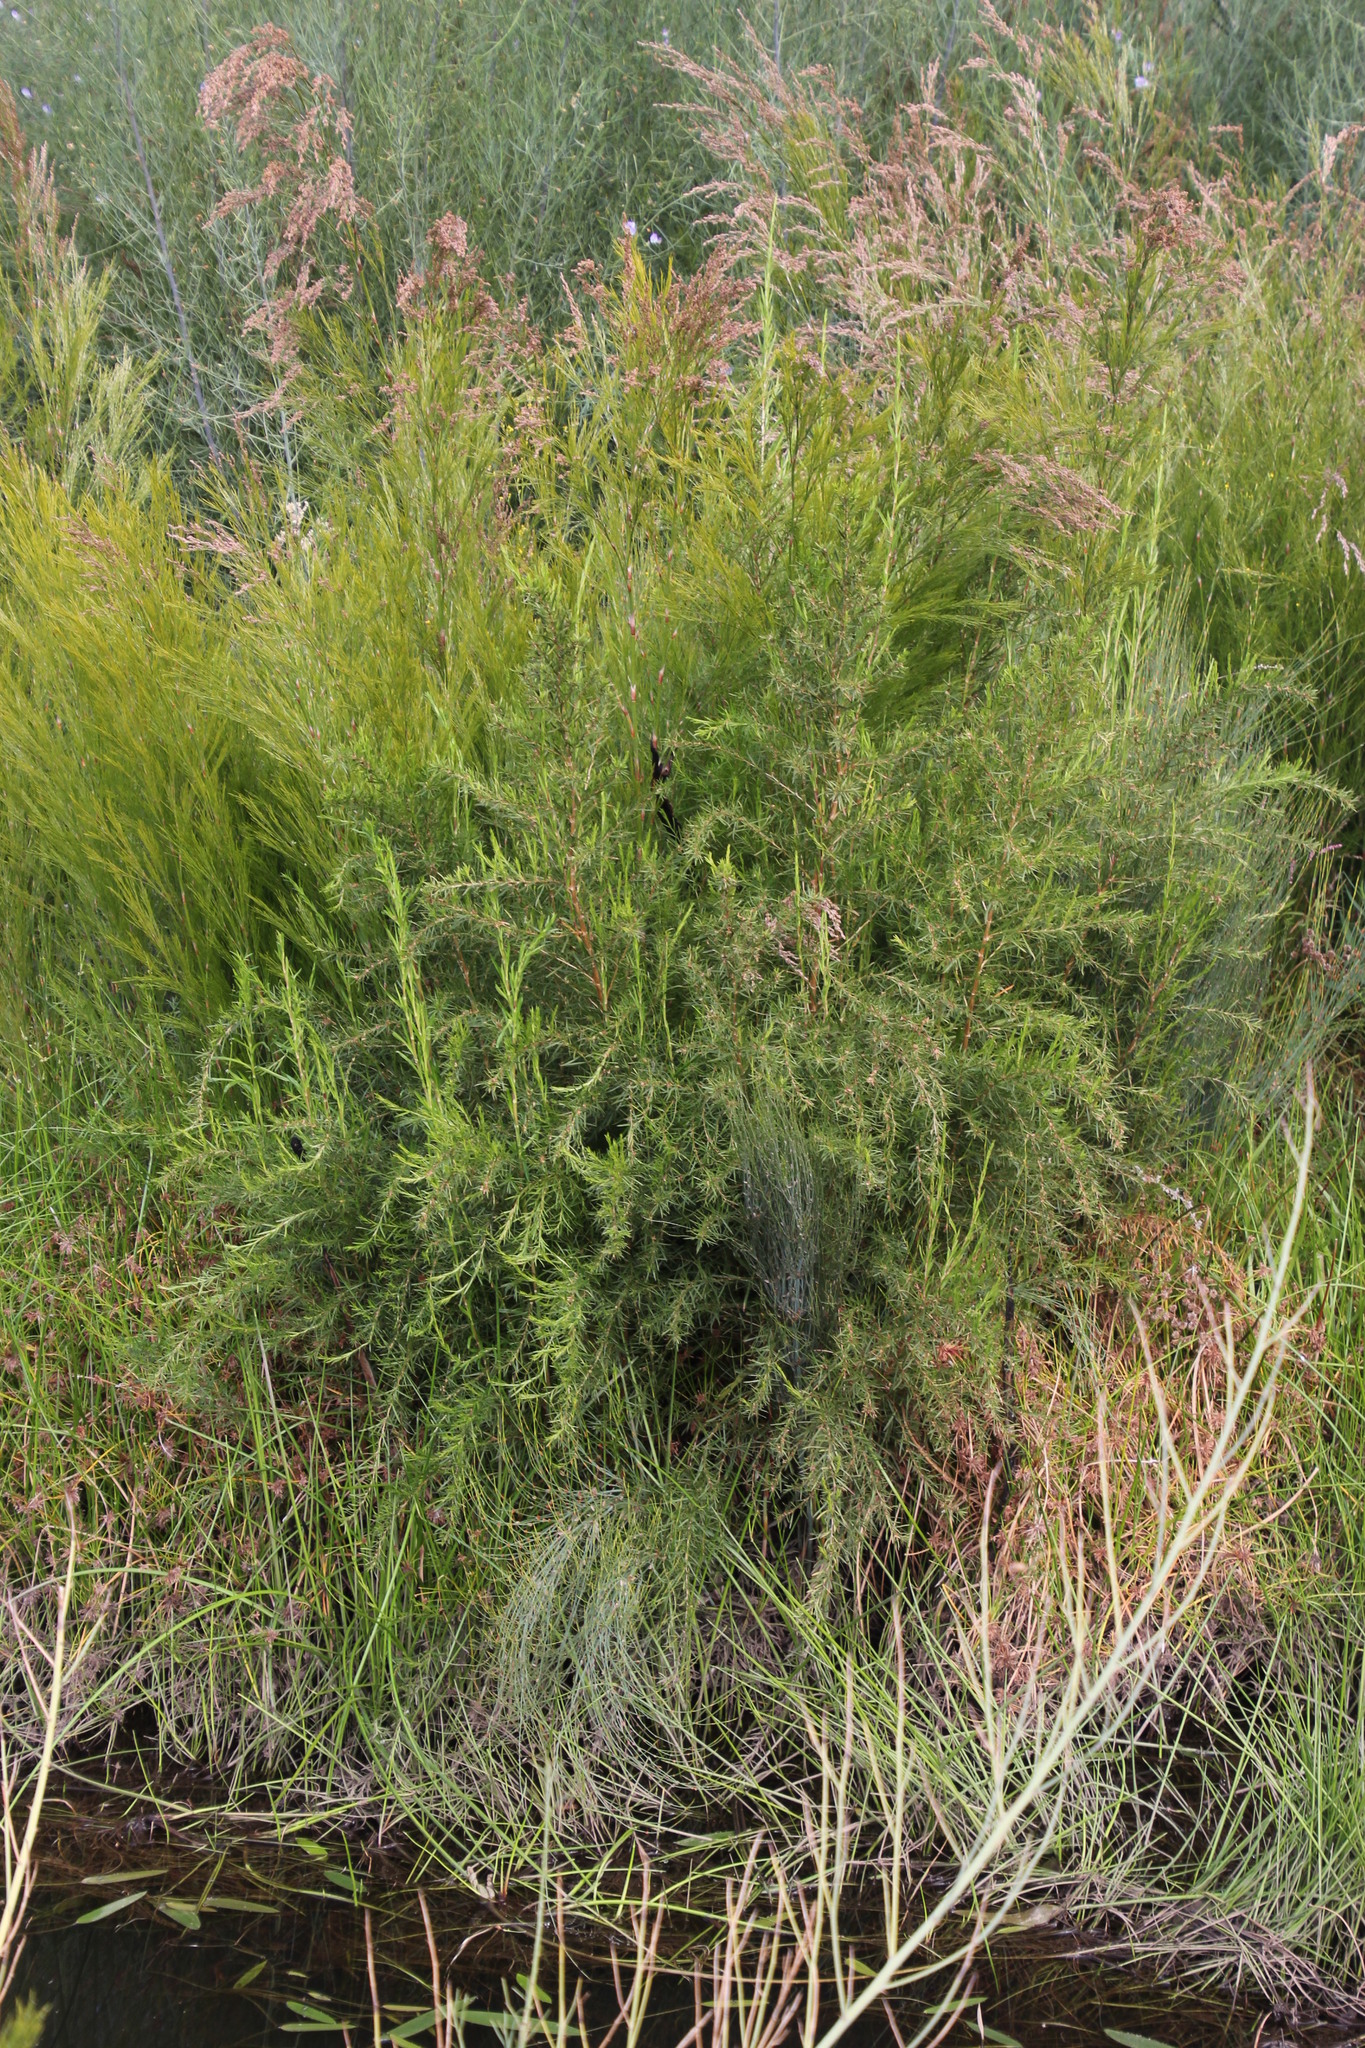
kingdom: Plantae
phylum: Tracheophyta
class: Magnoliopsida
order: Rosales
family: Rosaceae
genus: Cliffortia
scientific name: Cliffortia strobilifera
